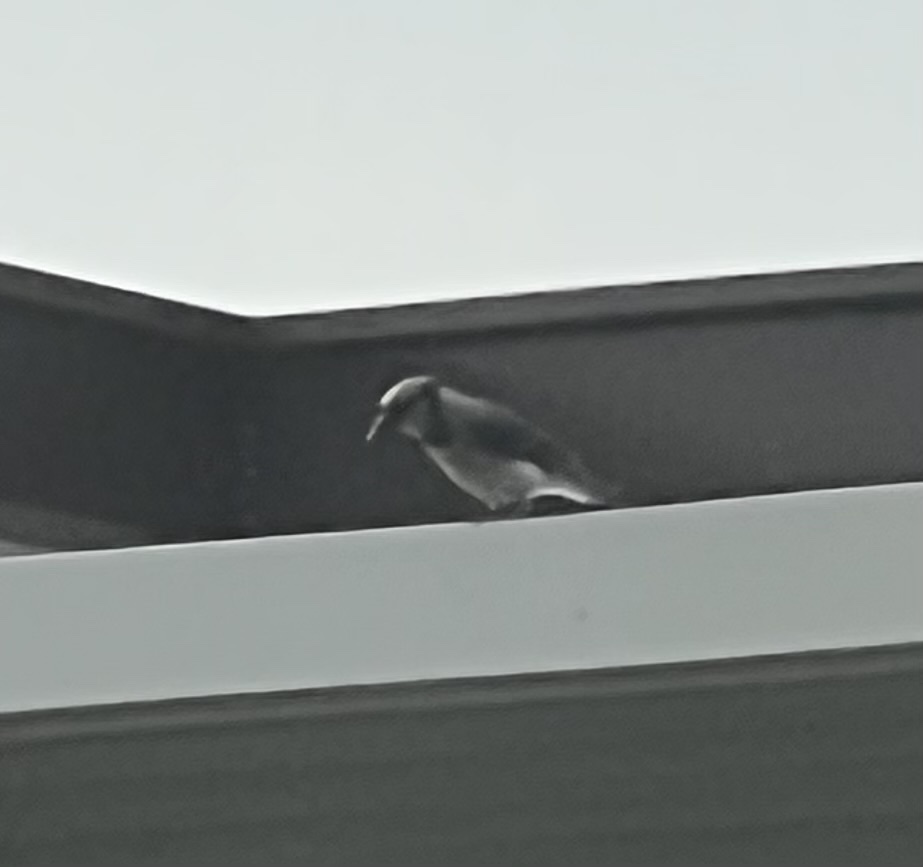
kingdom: Animalia
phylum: Chordata
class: Aves
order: Passeriformes
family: Corvidae
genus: Cyanocitta
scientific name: Cyanocitta cristata
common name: Blue jay
